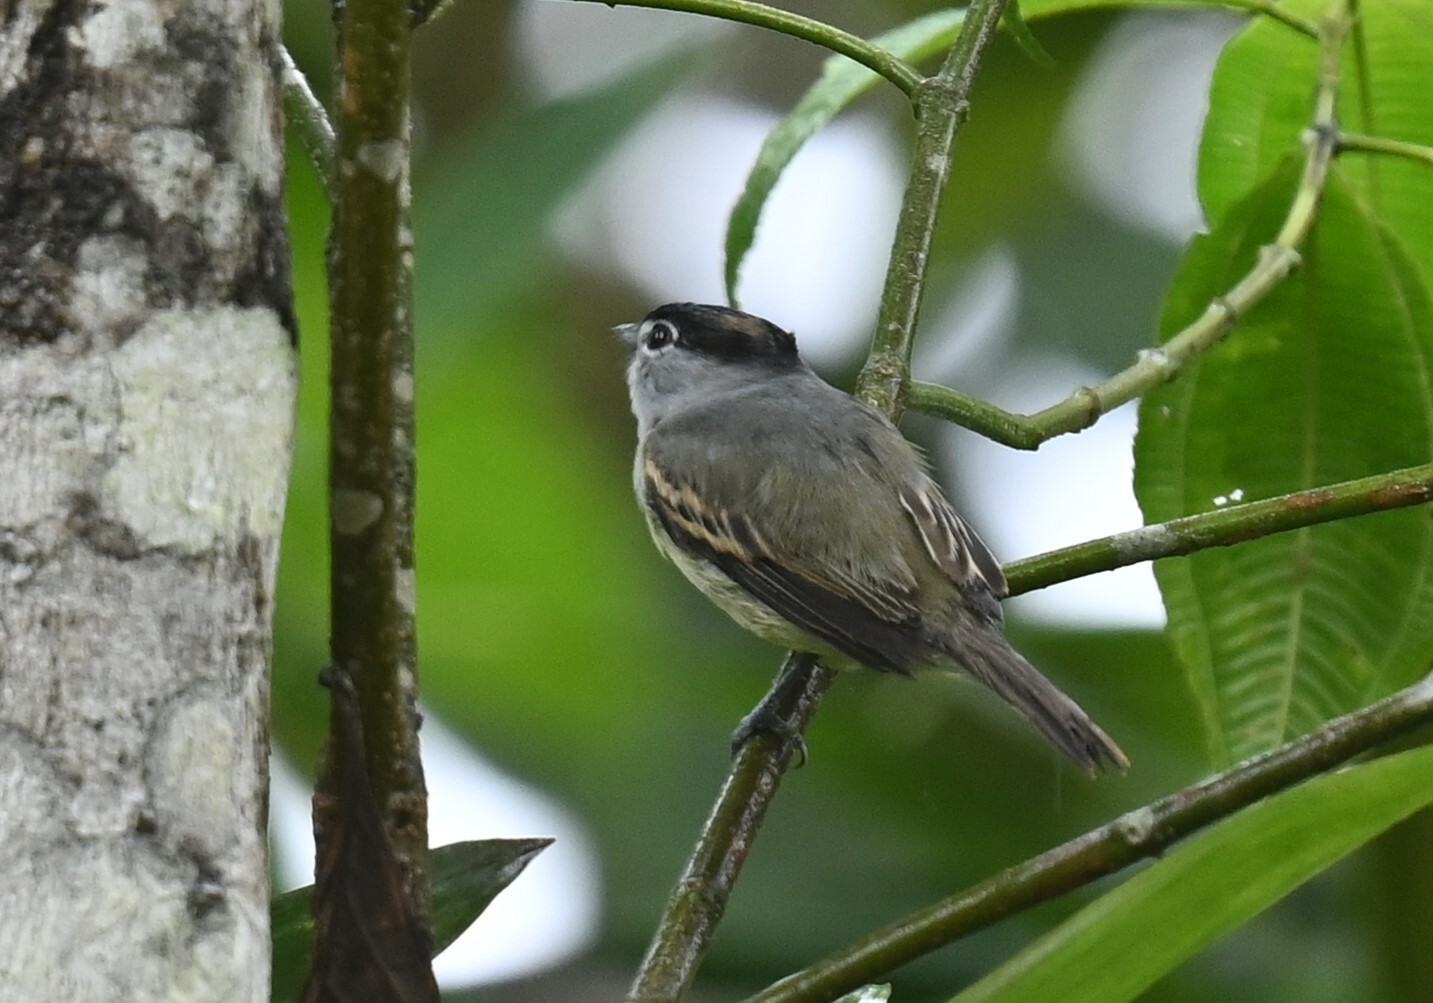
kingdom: Animalia
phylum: Chordata
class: Aves
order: Passeriformes
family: Cotingidae
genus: Pachyramphus
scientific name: Pachyramphus salvini
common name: Cryptic becard
